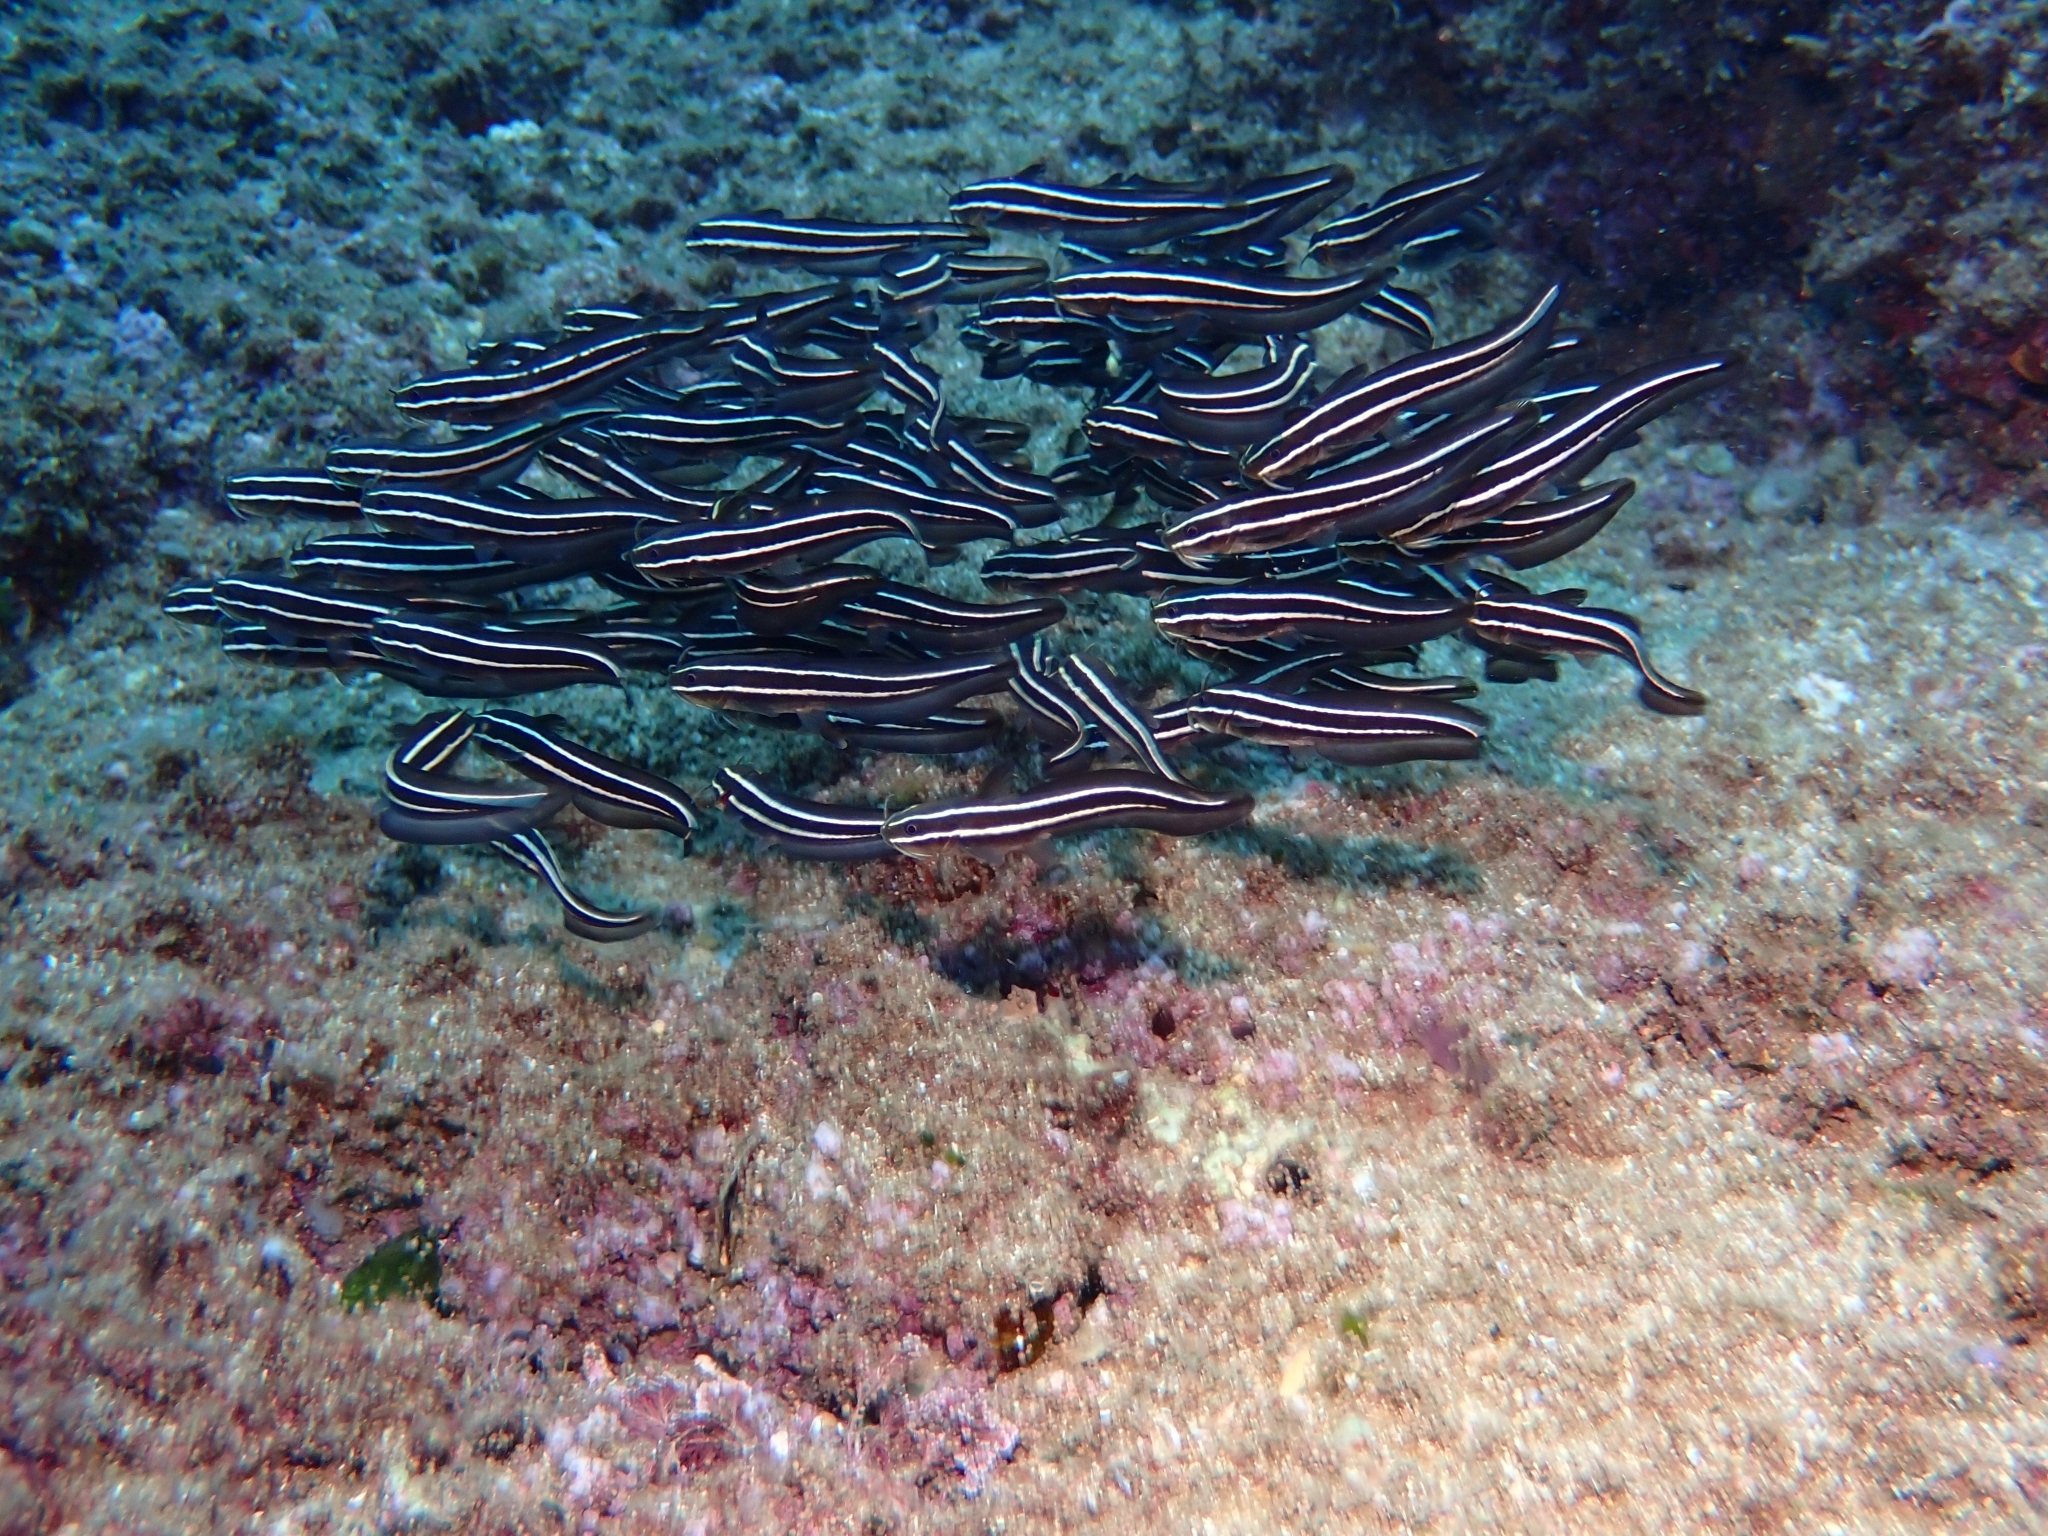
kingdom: Animalia
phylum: Chordata
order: Siluriformes
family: Plotosidae
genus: Plotosus
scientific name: Plotosus lineatus
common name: Striped eel catfish
